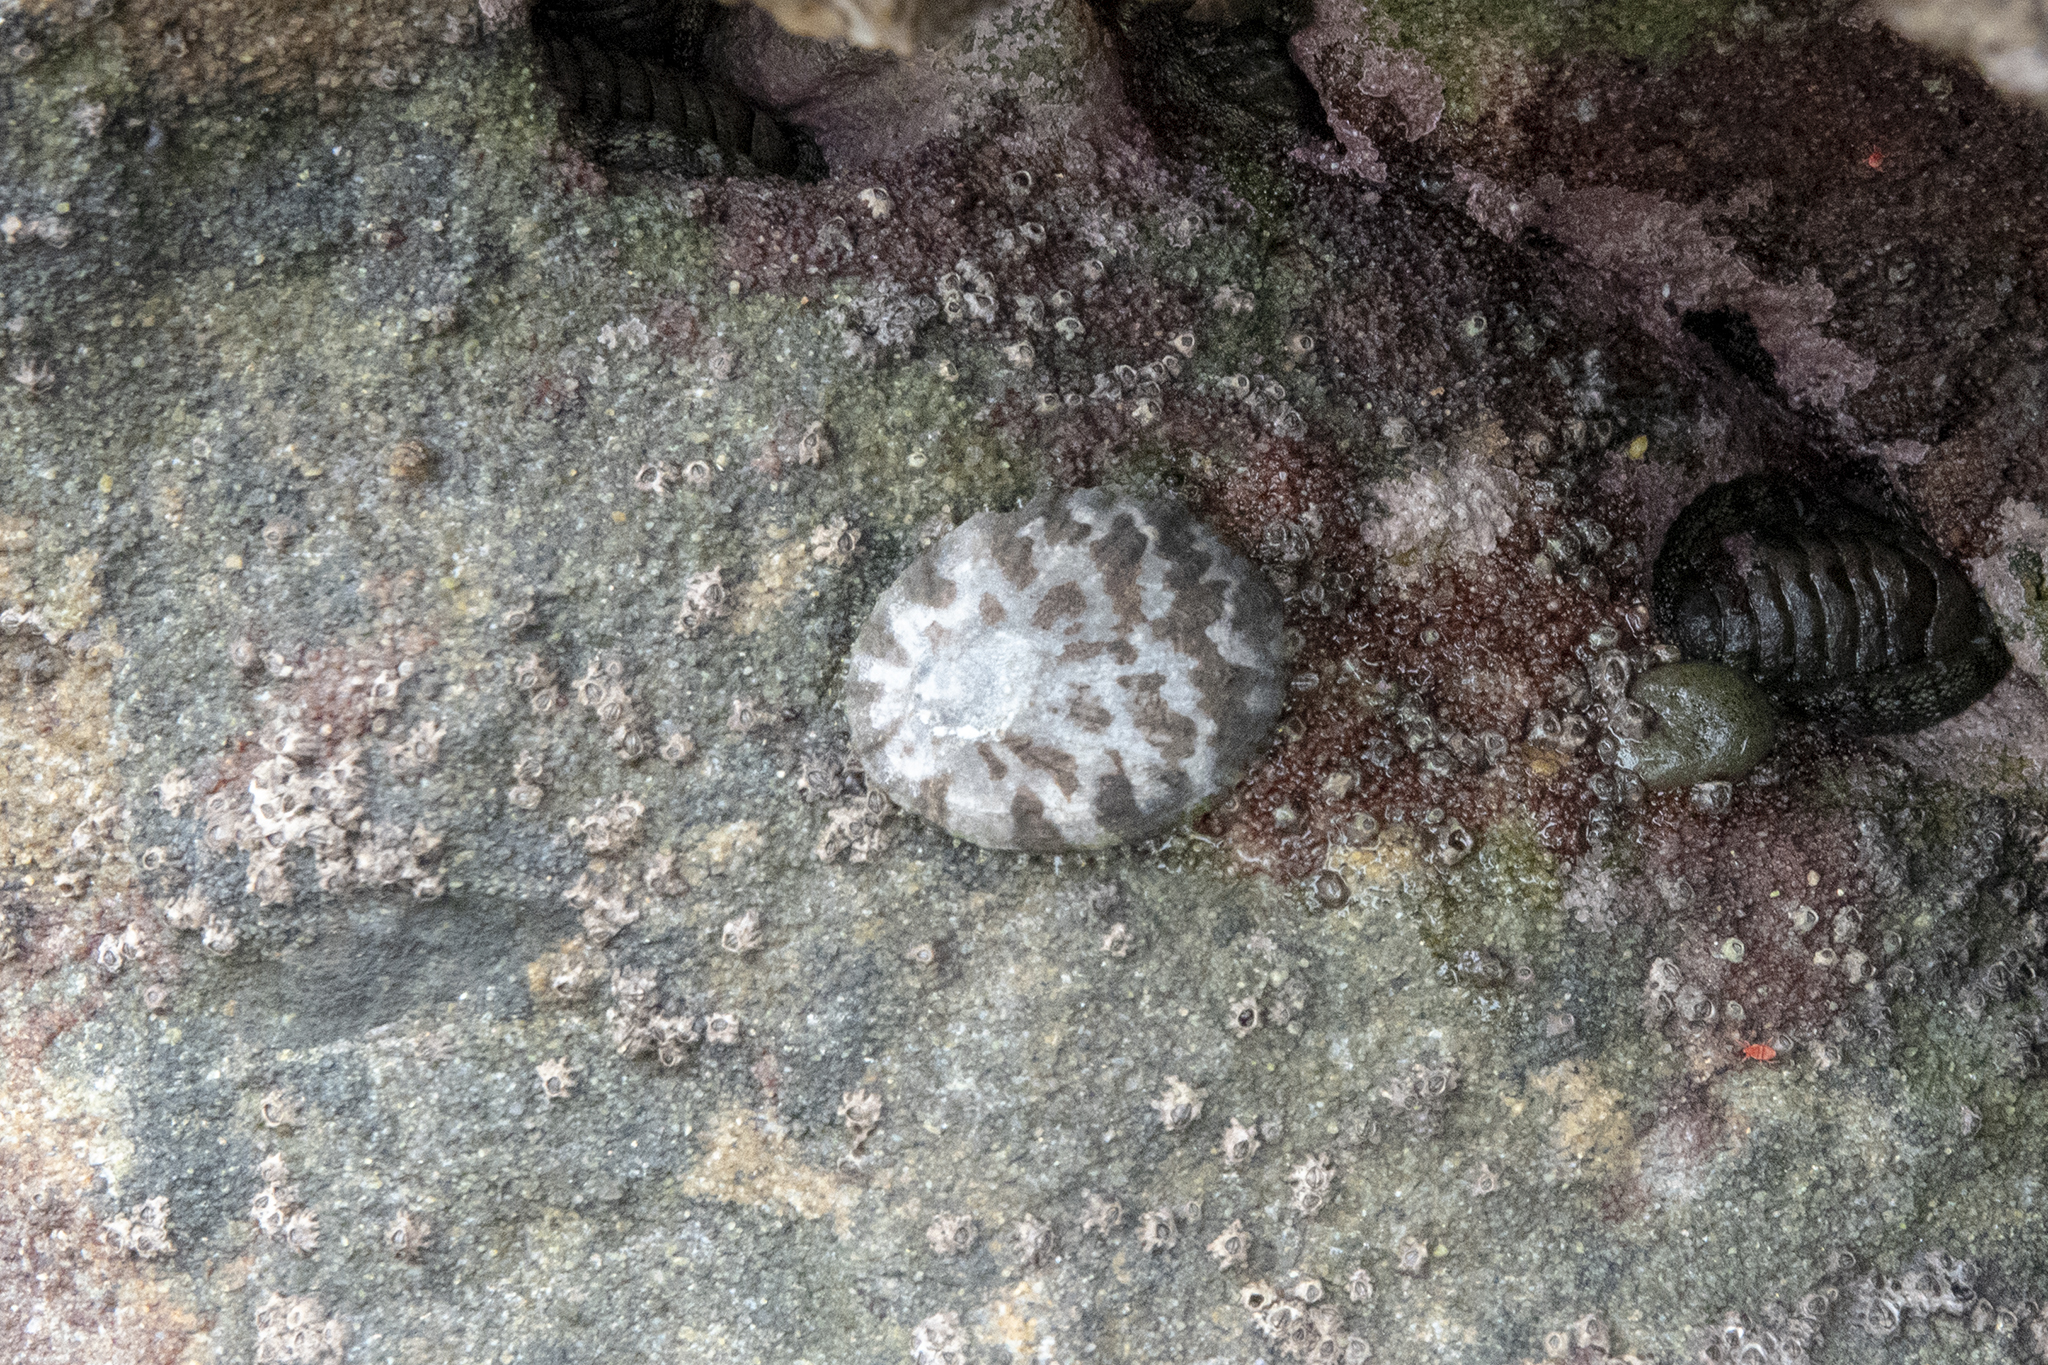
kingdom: Animalia
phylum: Mollusca
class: Gastropoda
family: Nacellidae
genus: Cellana
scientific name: Cellana radians
